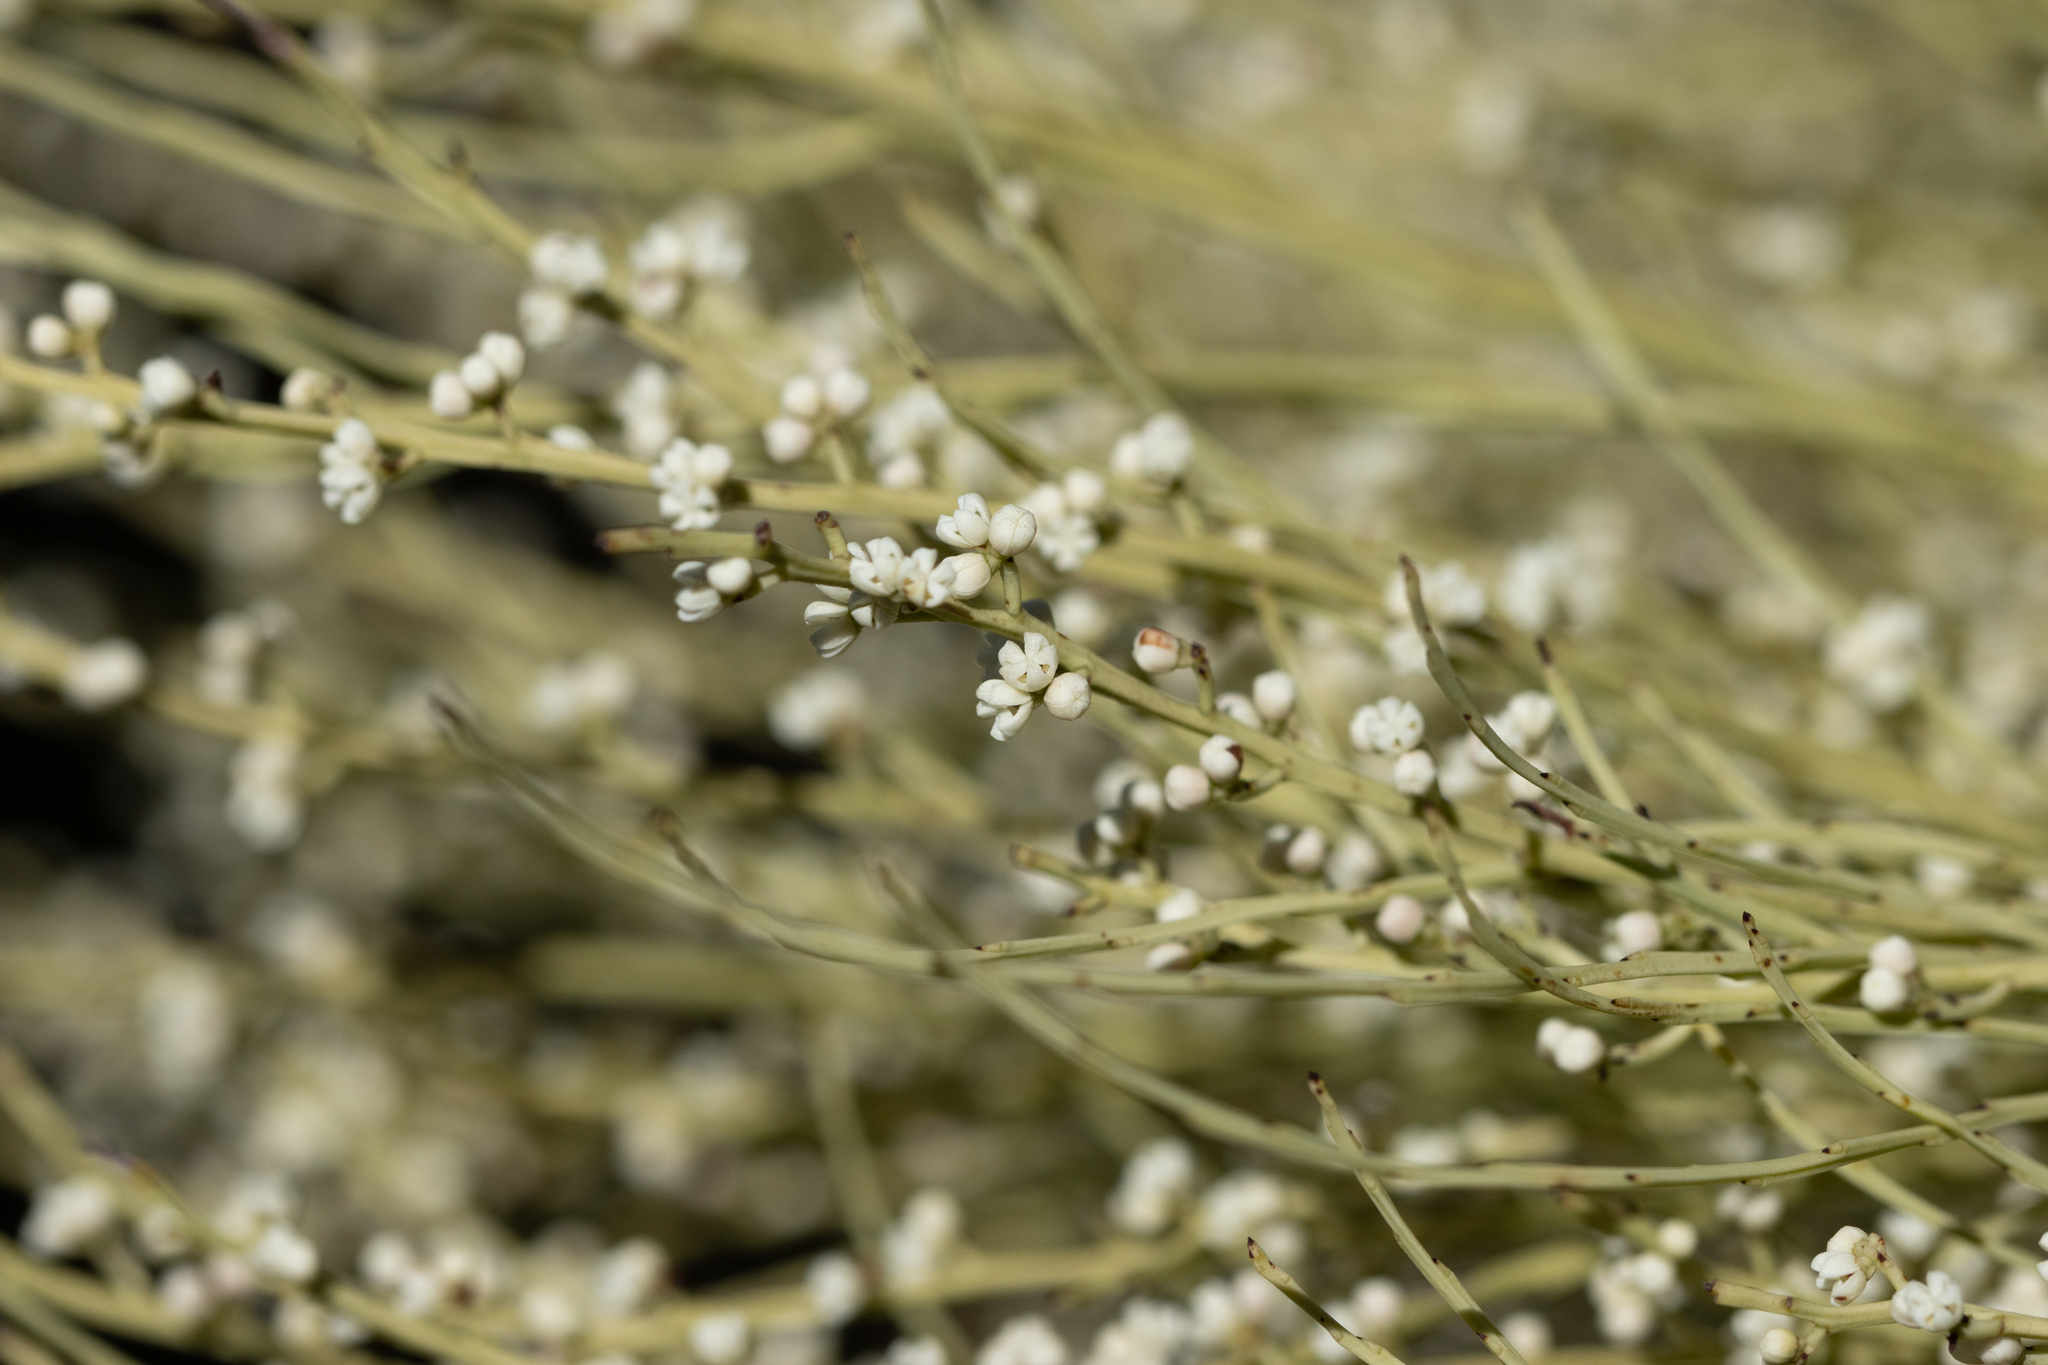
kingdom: Plantae
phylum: Tracheophyta
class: Magnoliopsida
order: Santalales
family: Amphorogynaceae
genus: Choretrum
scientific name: Choretrum glomeratum
